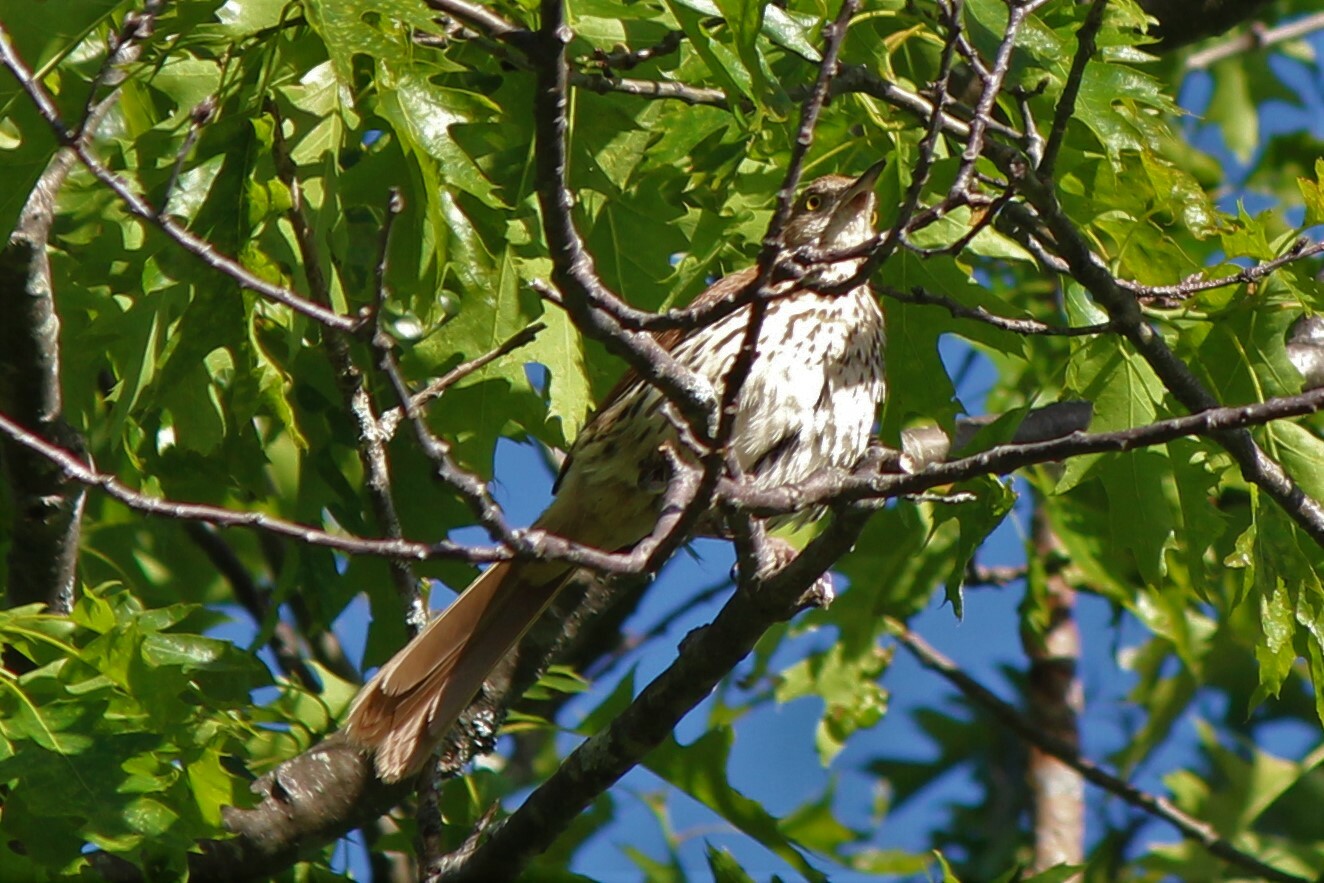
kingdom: Animalia
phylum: Chordata
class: Aves
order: Passeriformes
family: Mimidae
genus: Toxostoma
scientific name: Toxostoma rufum
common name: Brown thrasher
